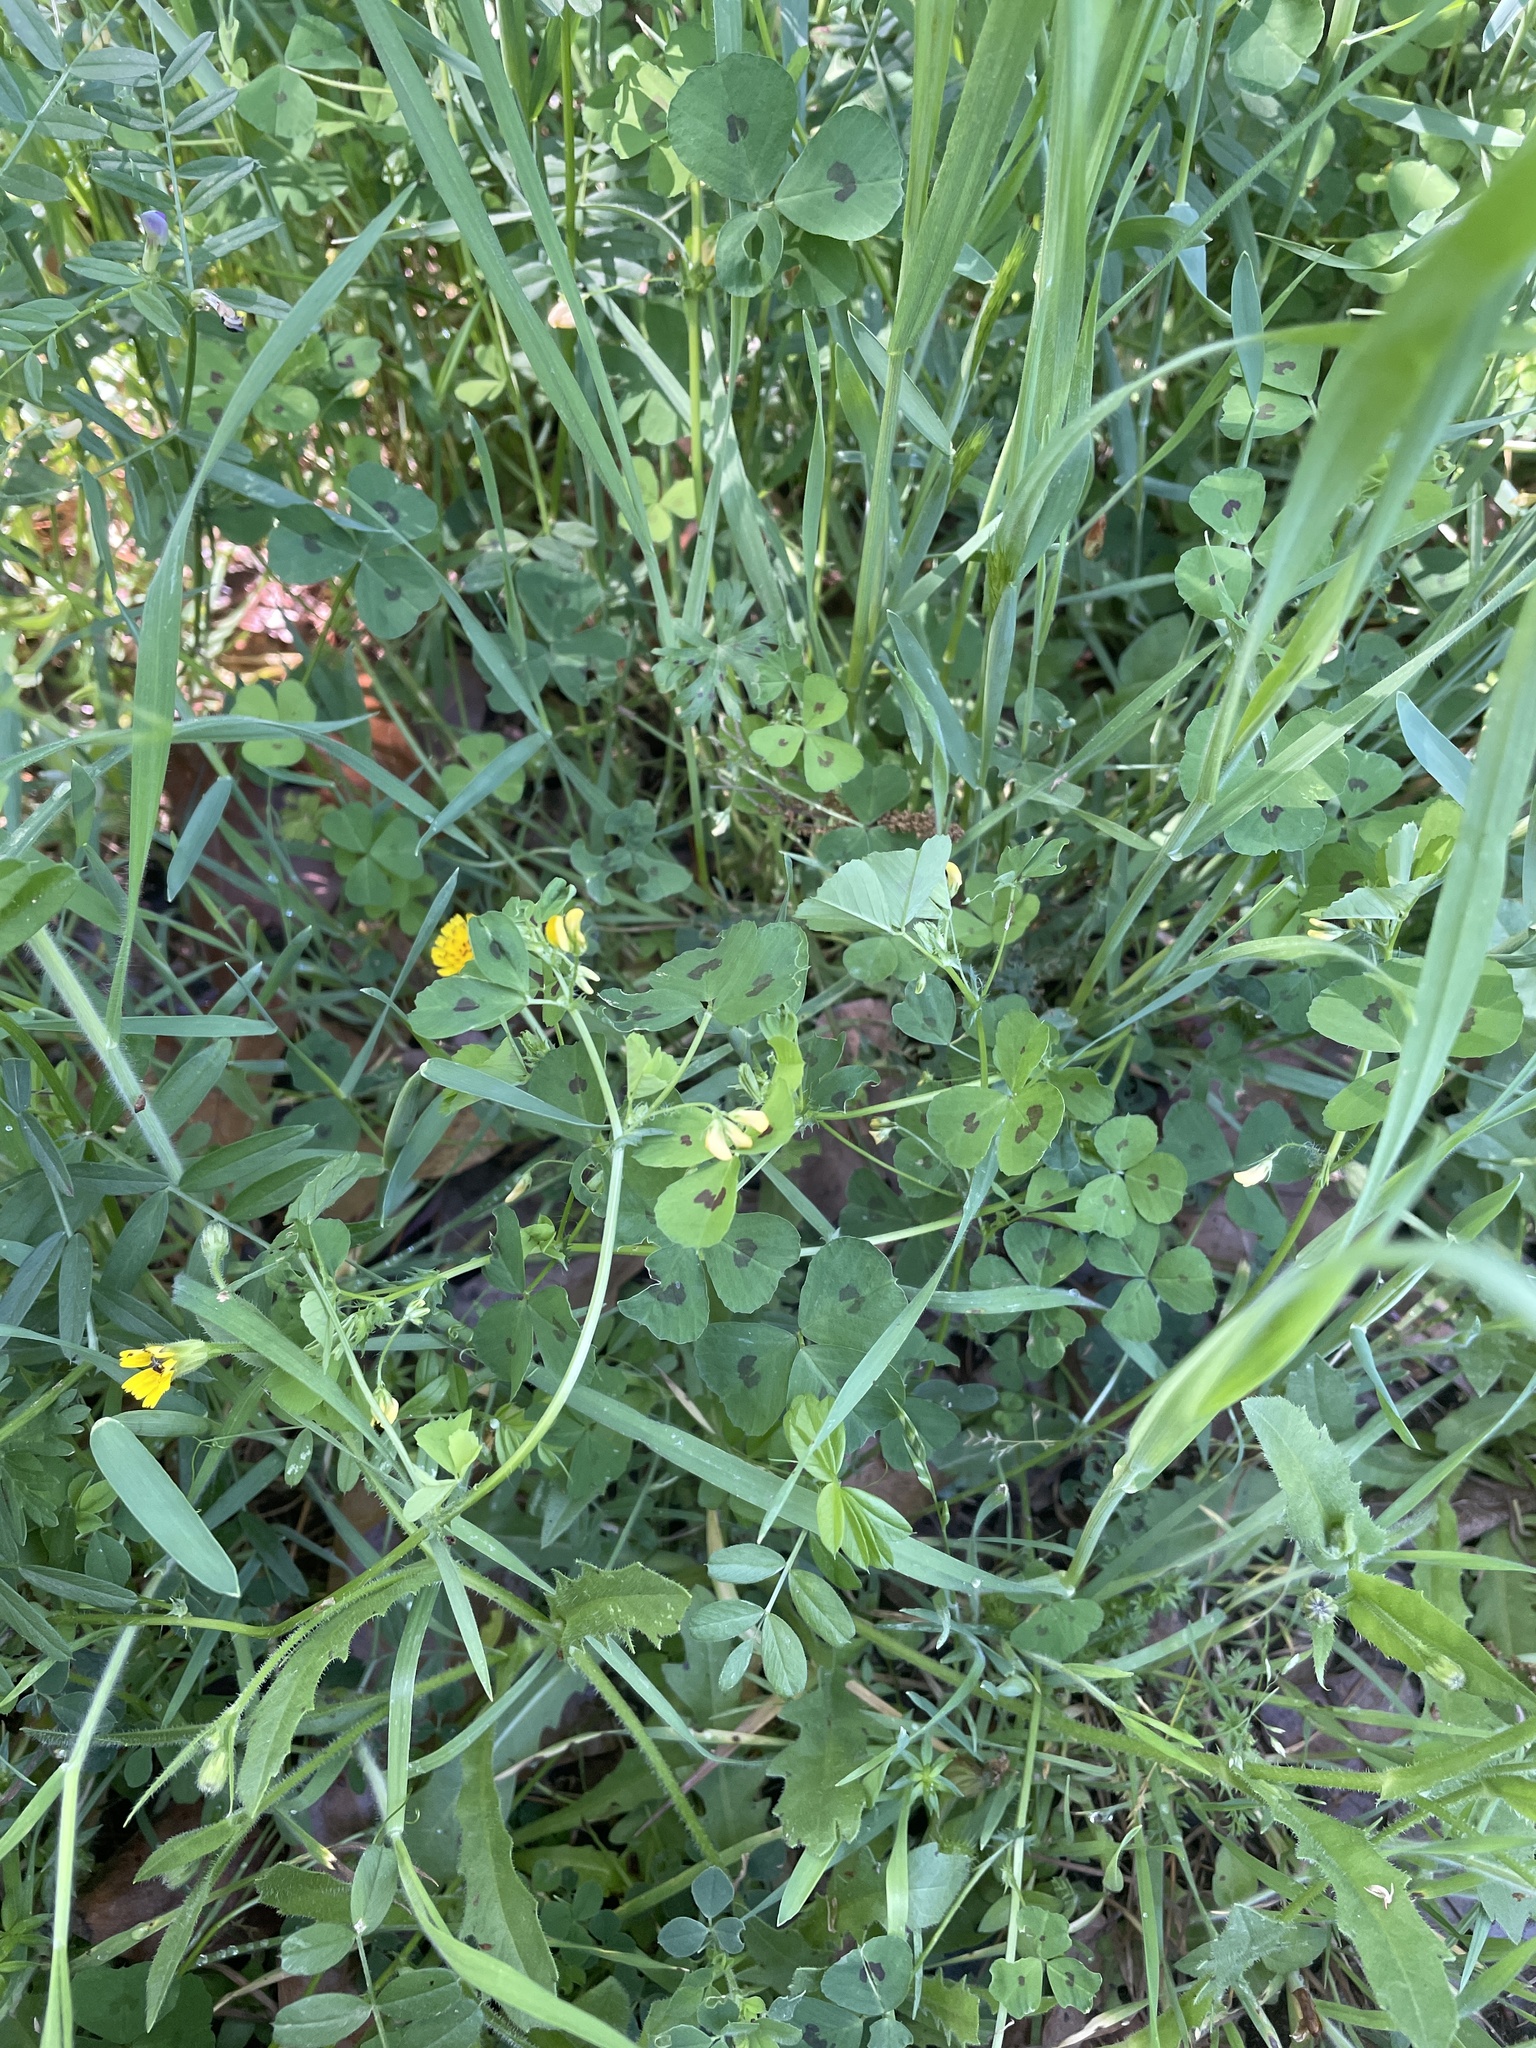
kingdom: Plantae
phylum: Tracheophyta
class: Magnoliopsida
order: Fabales
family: Fabaceae
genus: Medicago
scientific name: Medicago arabica
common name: Spotted medick
